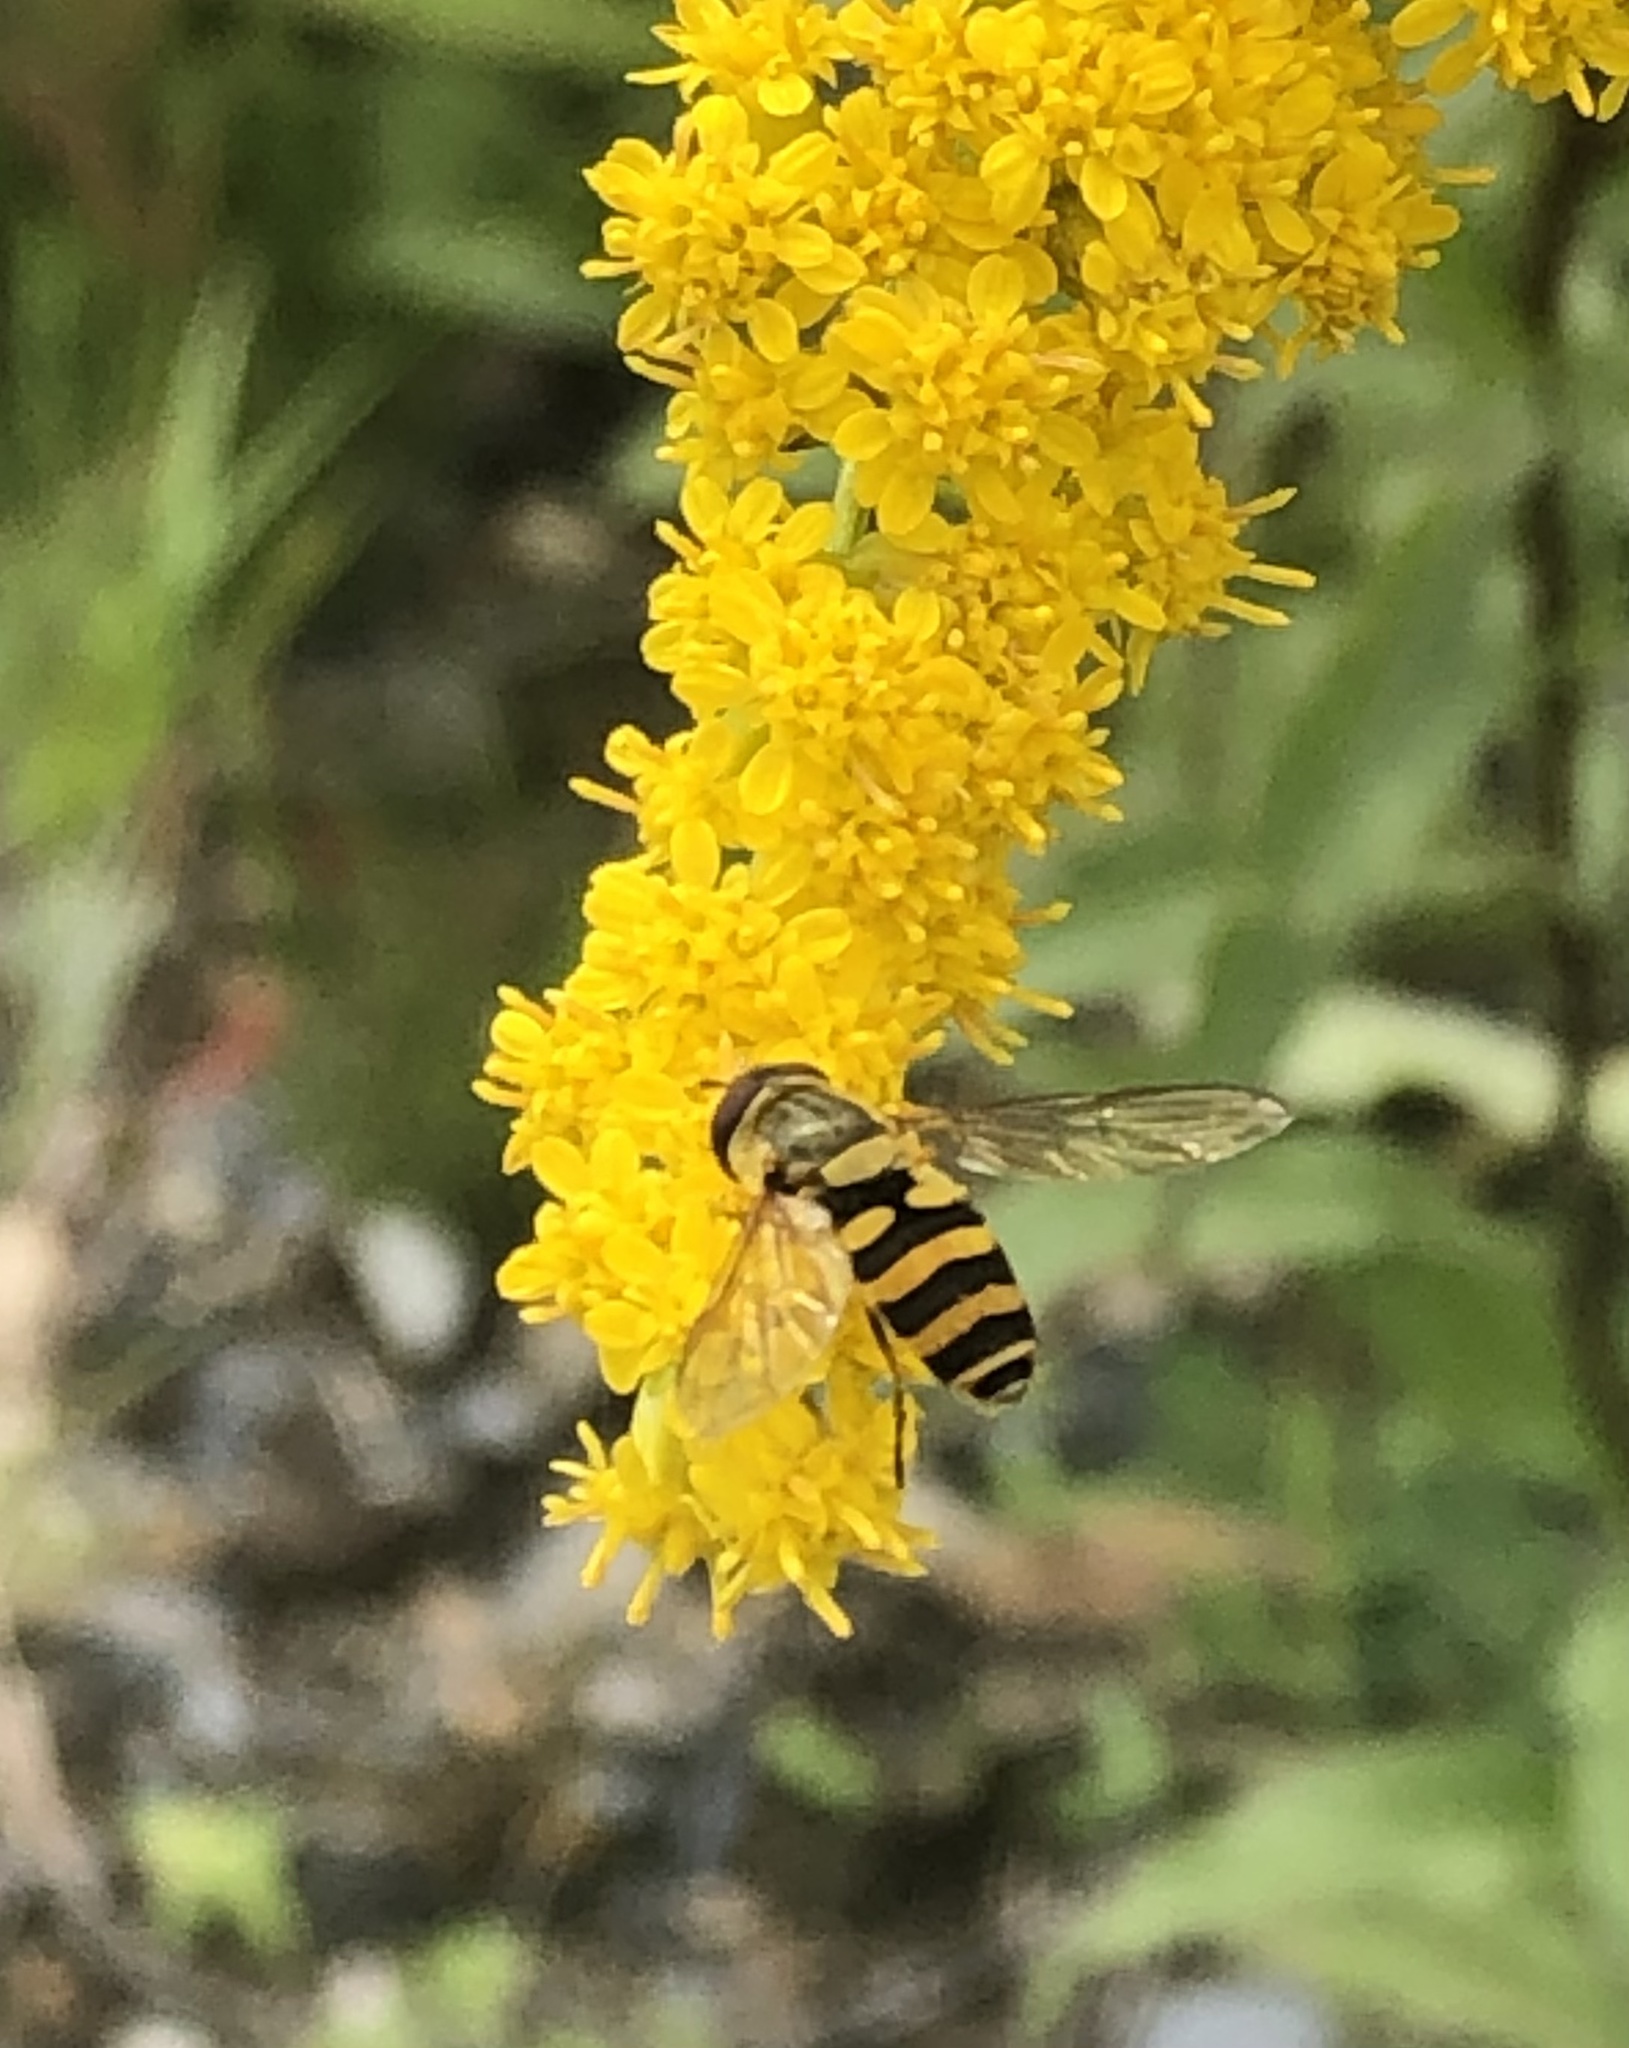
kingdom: Animalia
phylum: Arthropoda
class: Insecta
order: Diptera
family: Syrphidae
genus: Syrphus
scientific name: Syrphus
